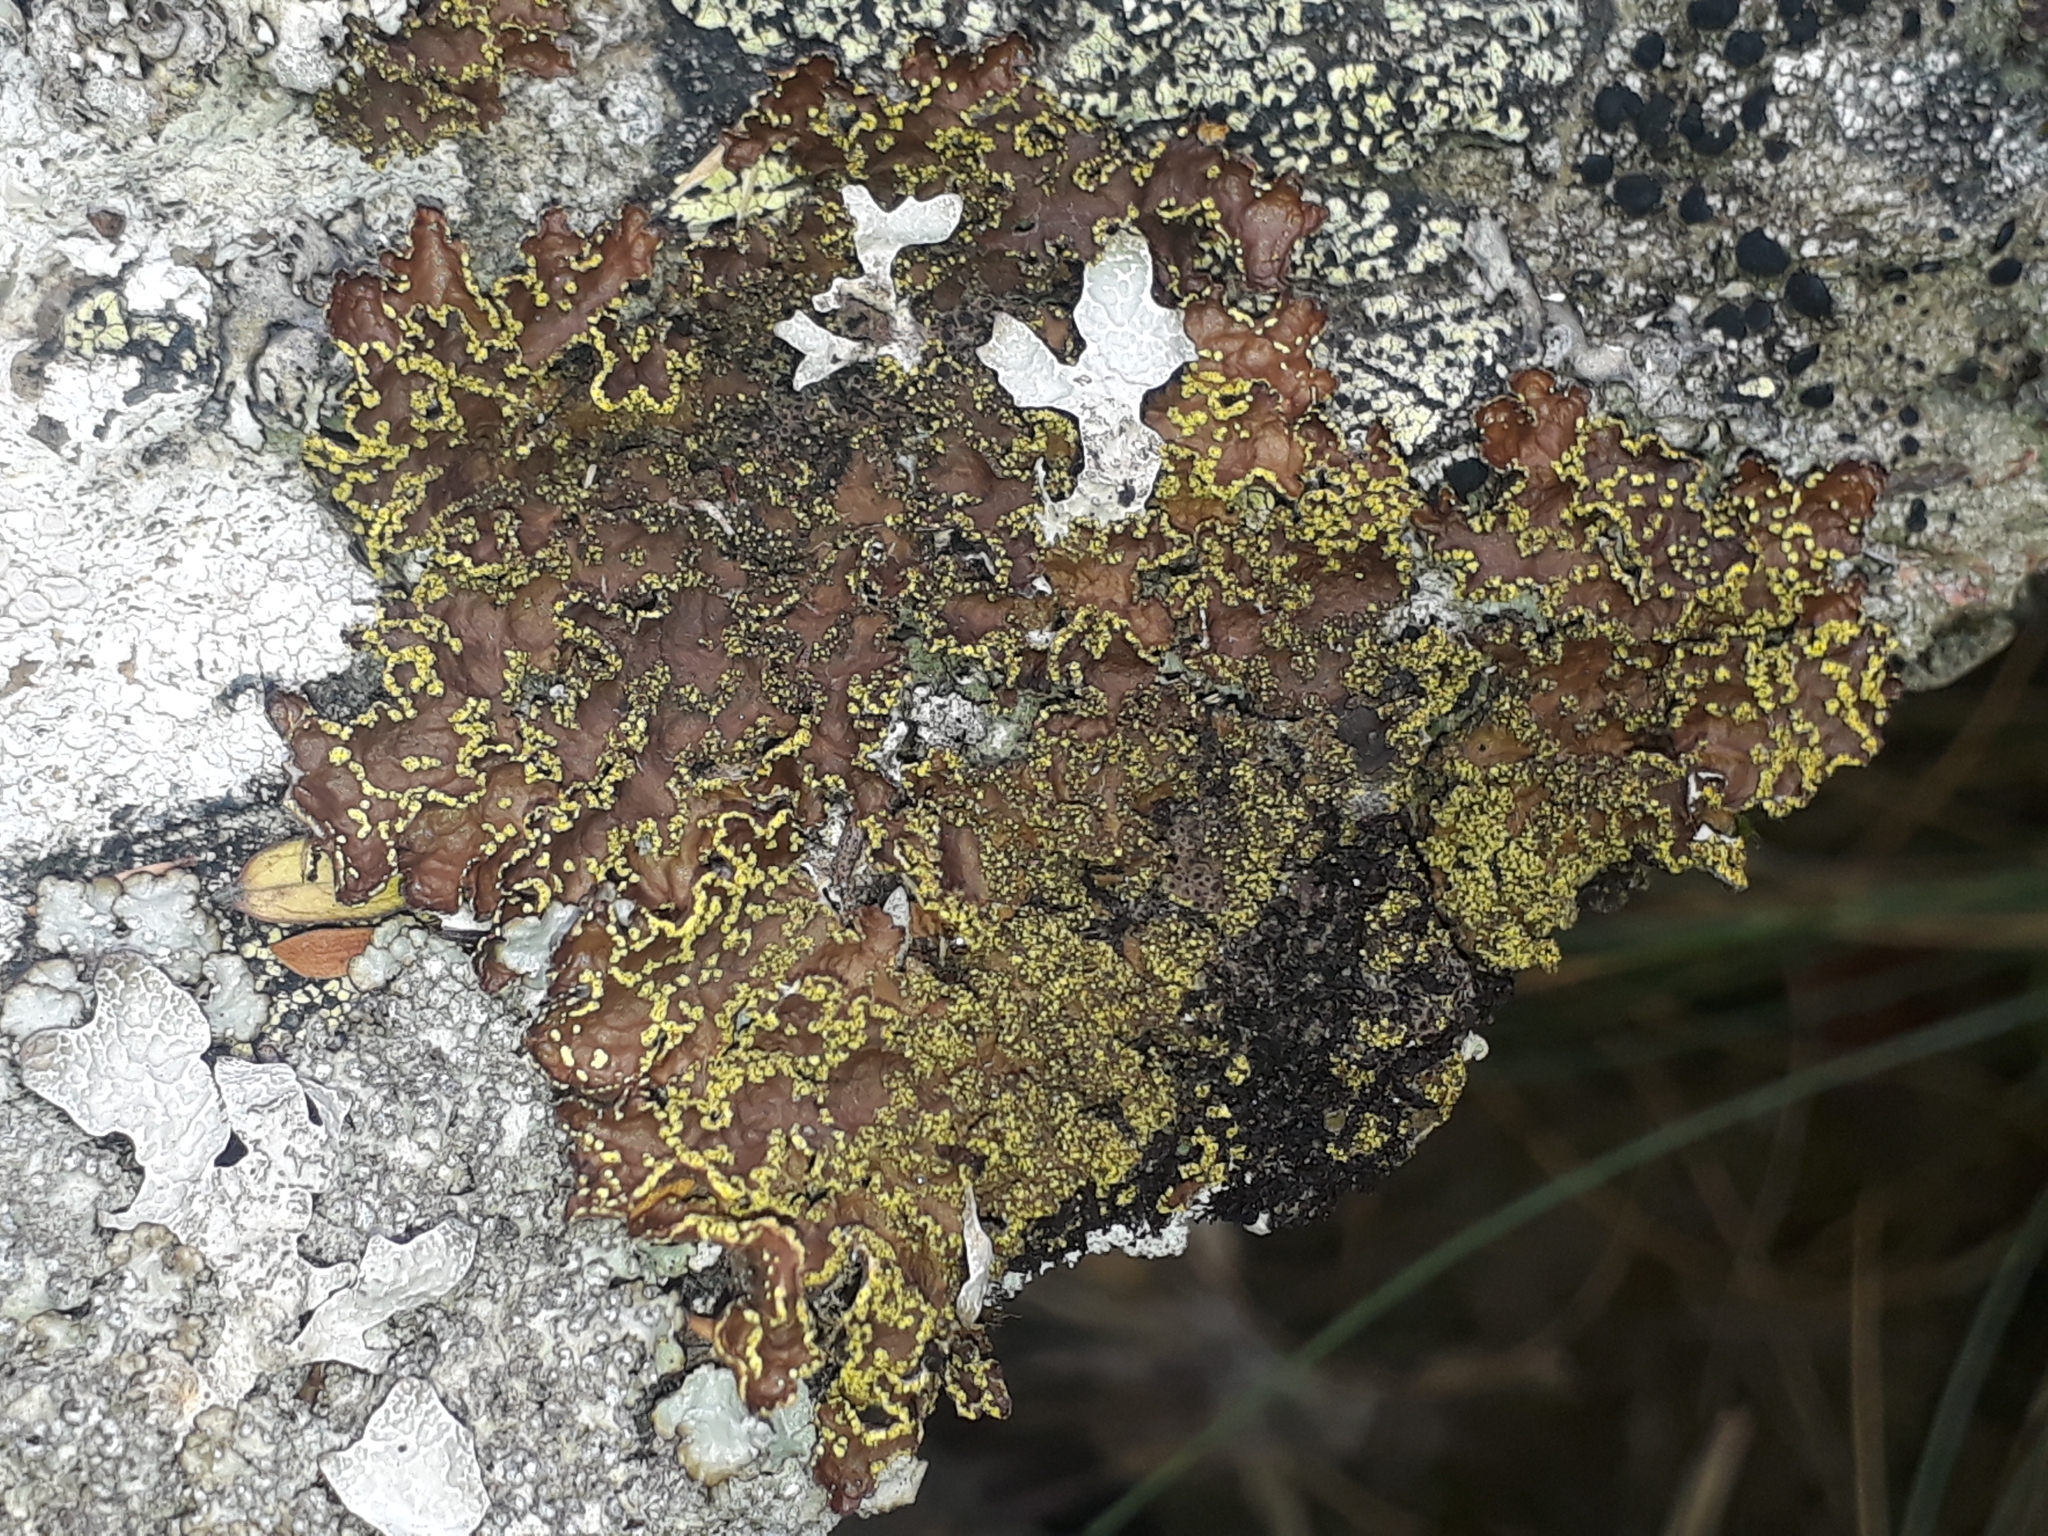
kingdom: Fungi
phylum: Ascomycota
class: Lecanoromycetes
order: Peltigerales
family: Lobariaceae
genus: Pseudocyphellaria
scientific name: Pseudocyphellaria crocata
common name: Golden specklebelly
